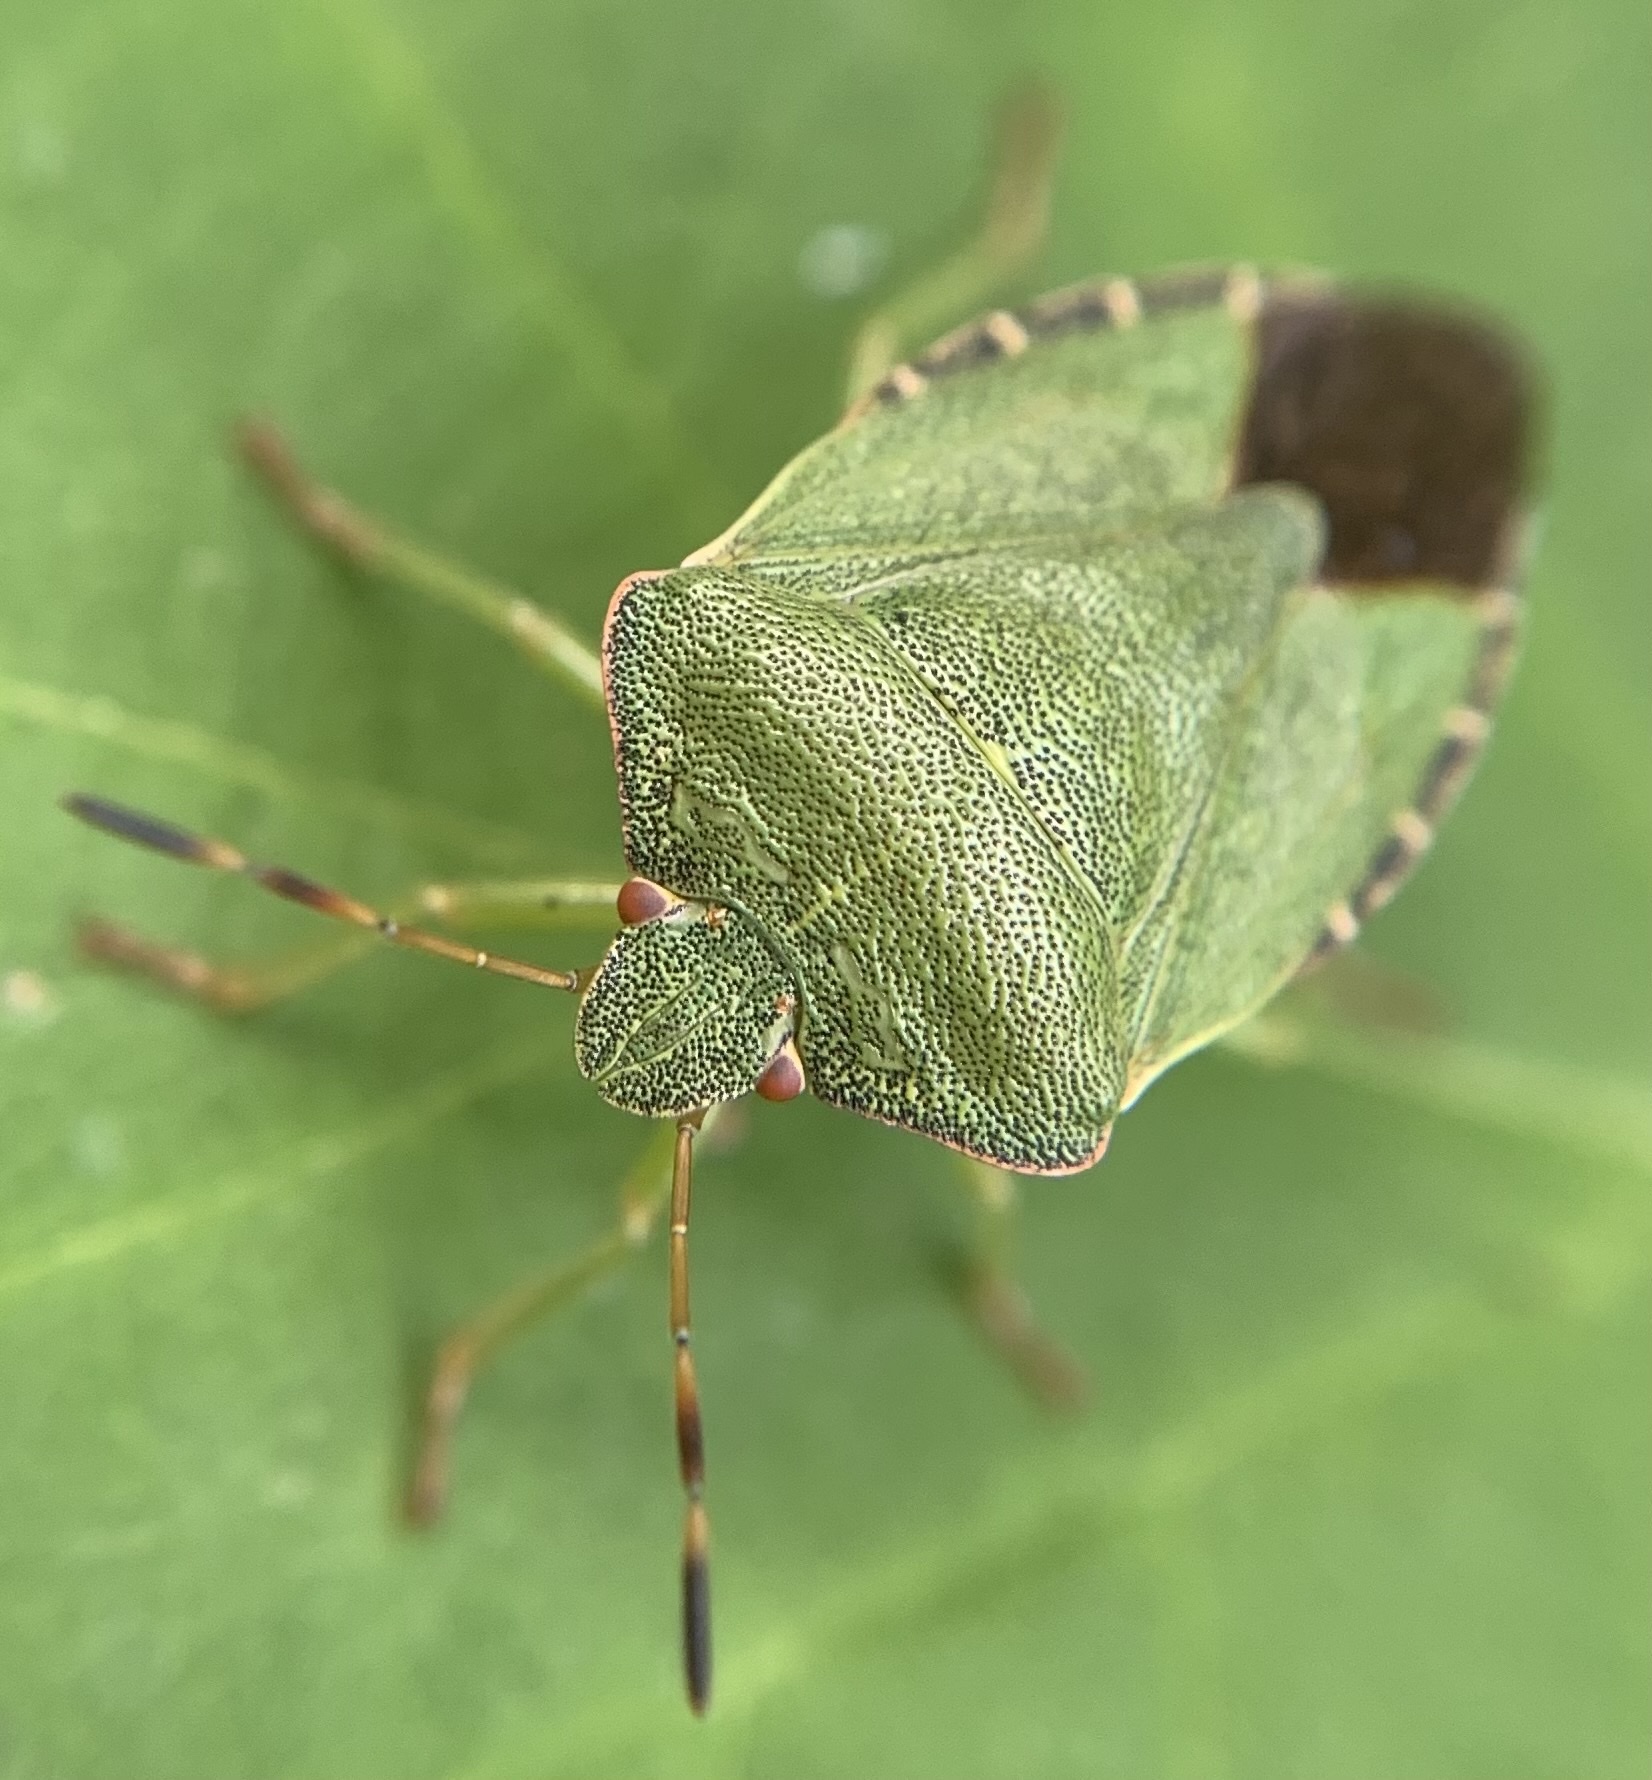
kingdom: Animalia
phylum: Arthropoda
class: Insecta
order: Hemiptera
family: Pentatomidae
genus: Palomena
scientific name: Palomena prasina
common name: Green shieldbug
